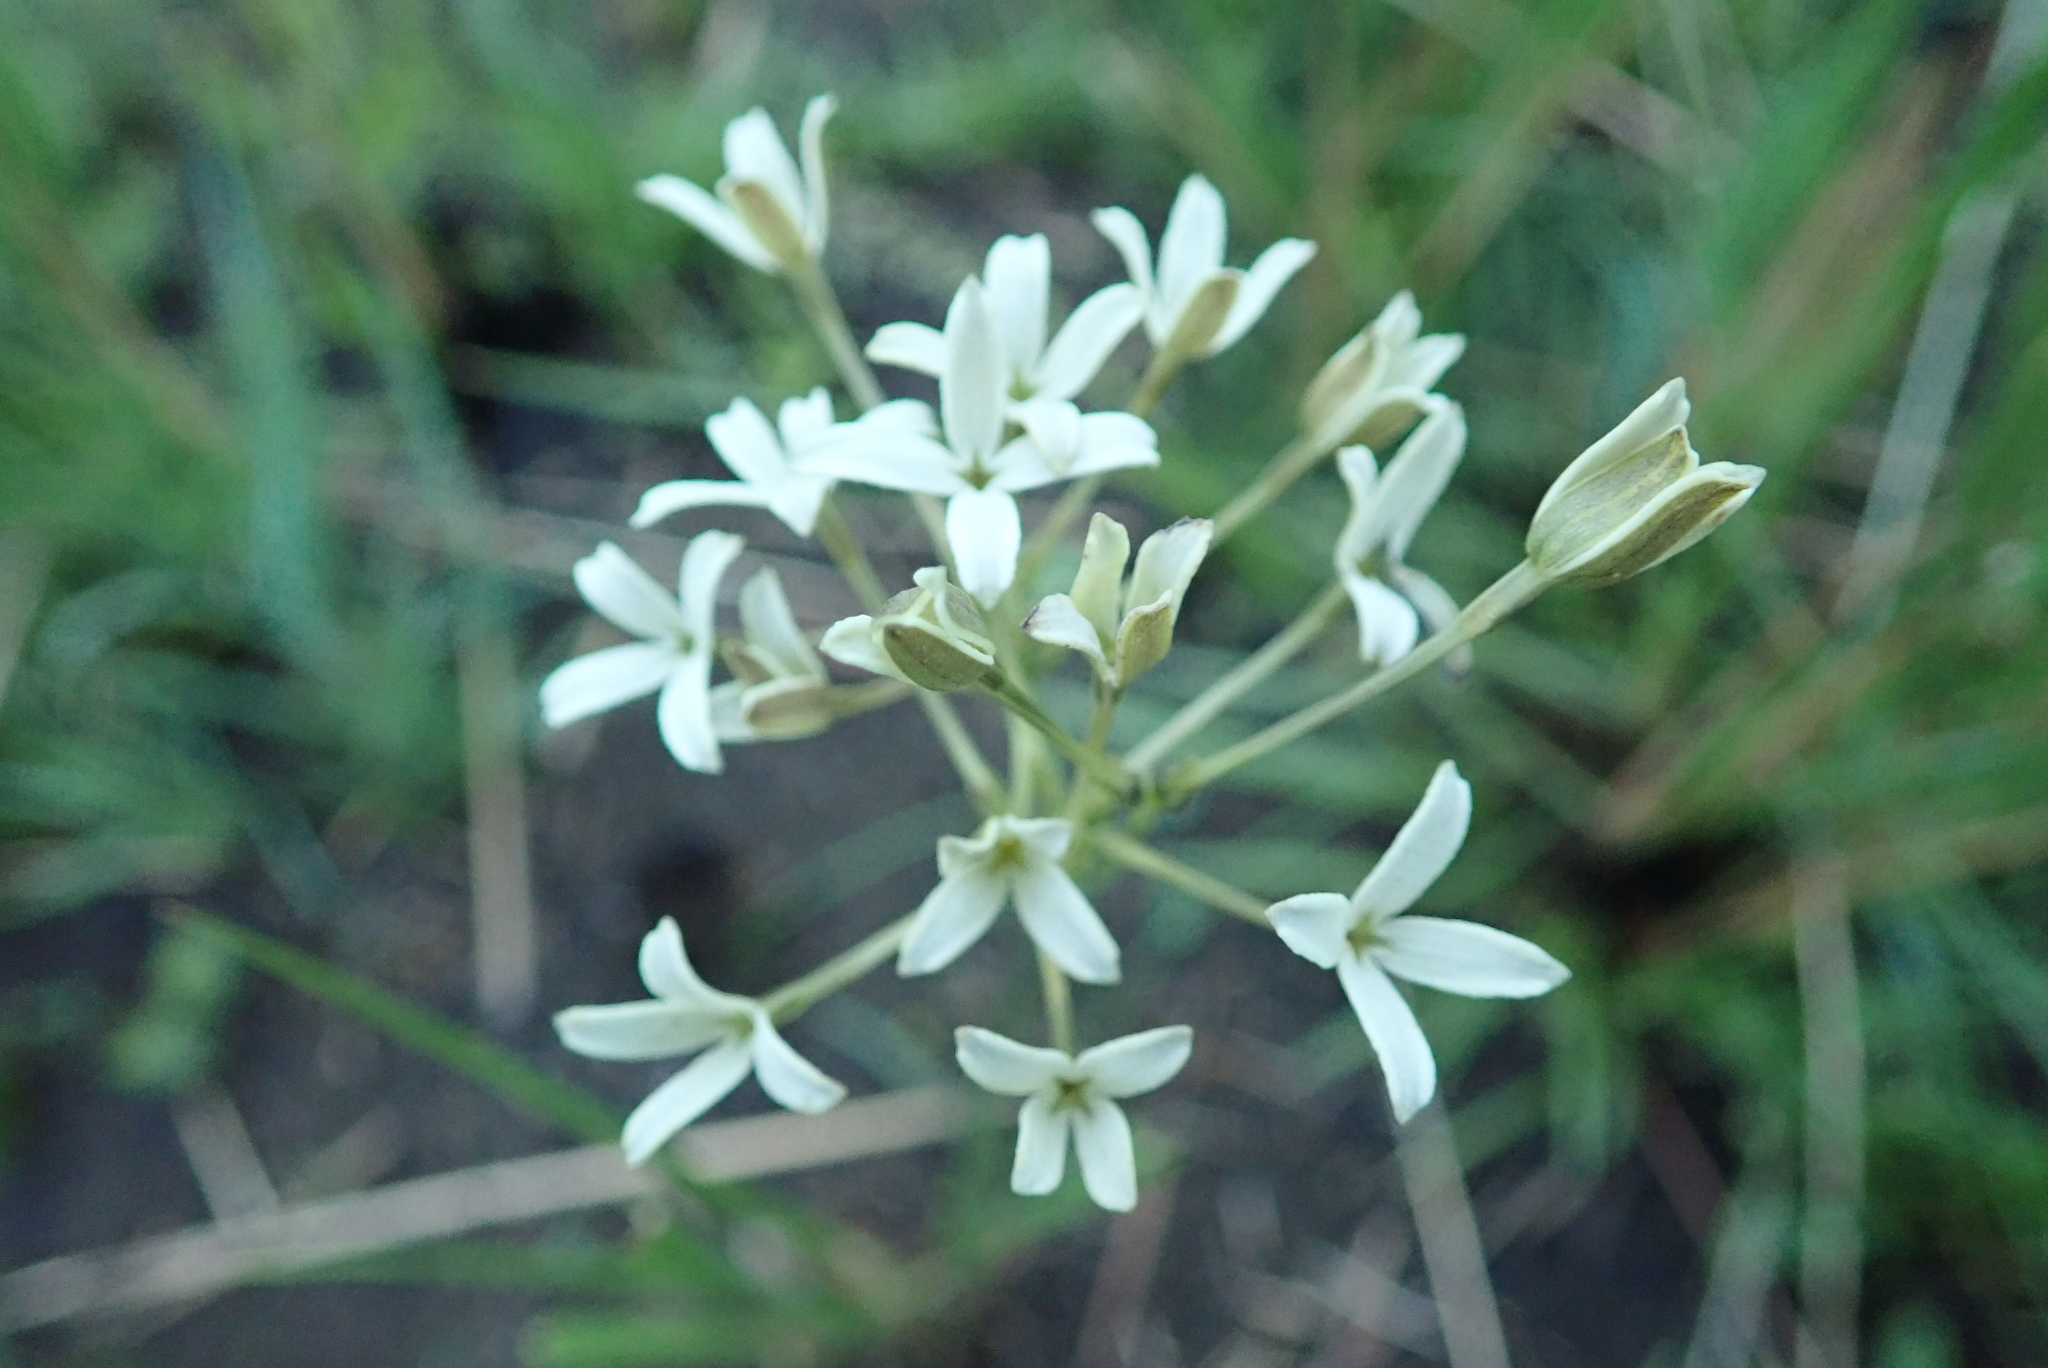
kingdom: Plantae
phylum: Tracheophyta
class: Magnoliopsida
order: Gentianales
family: Rubiaceae
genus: Kohautia
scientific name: Kohautia amatymbica
